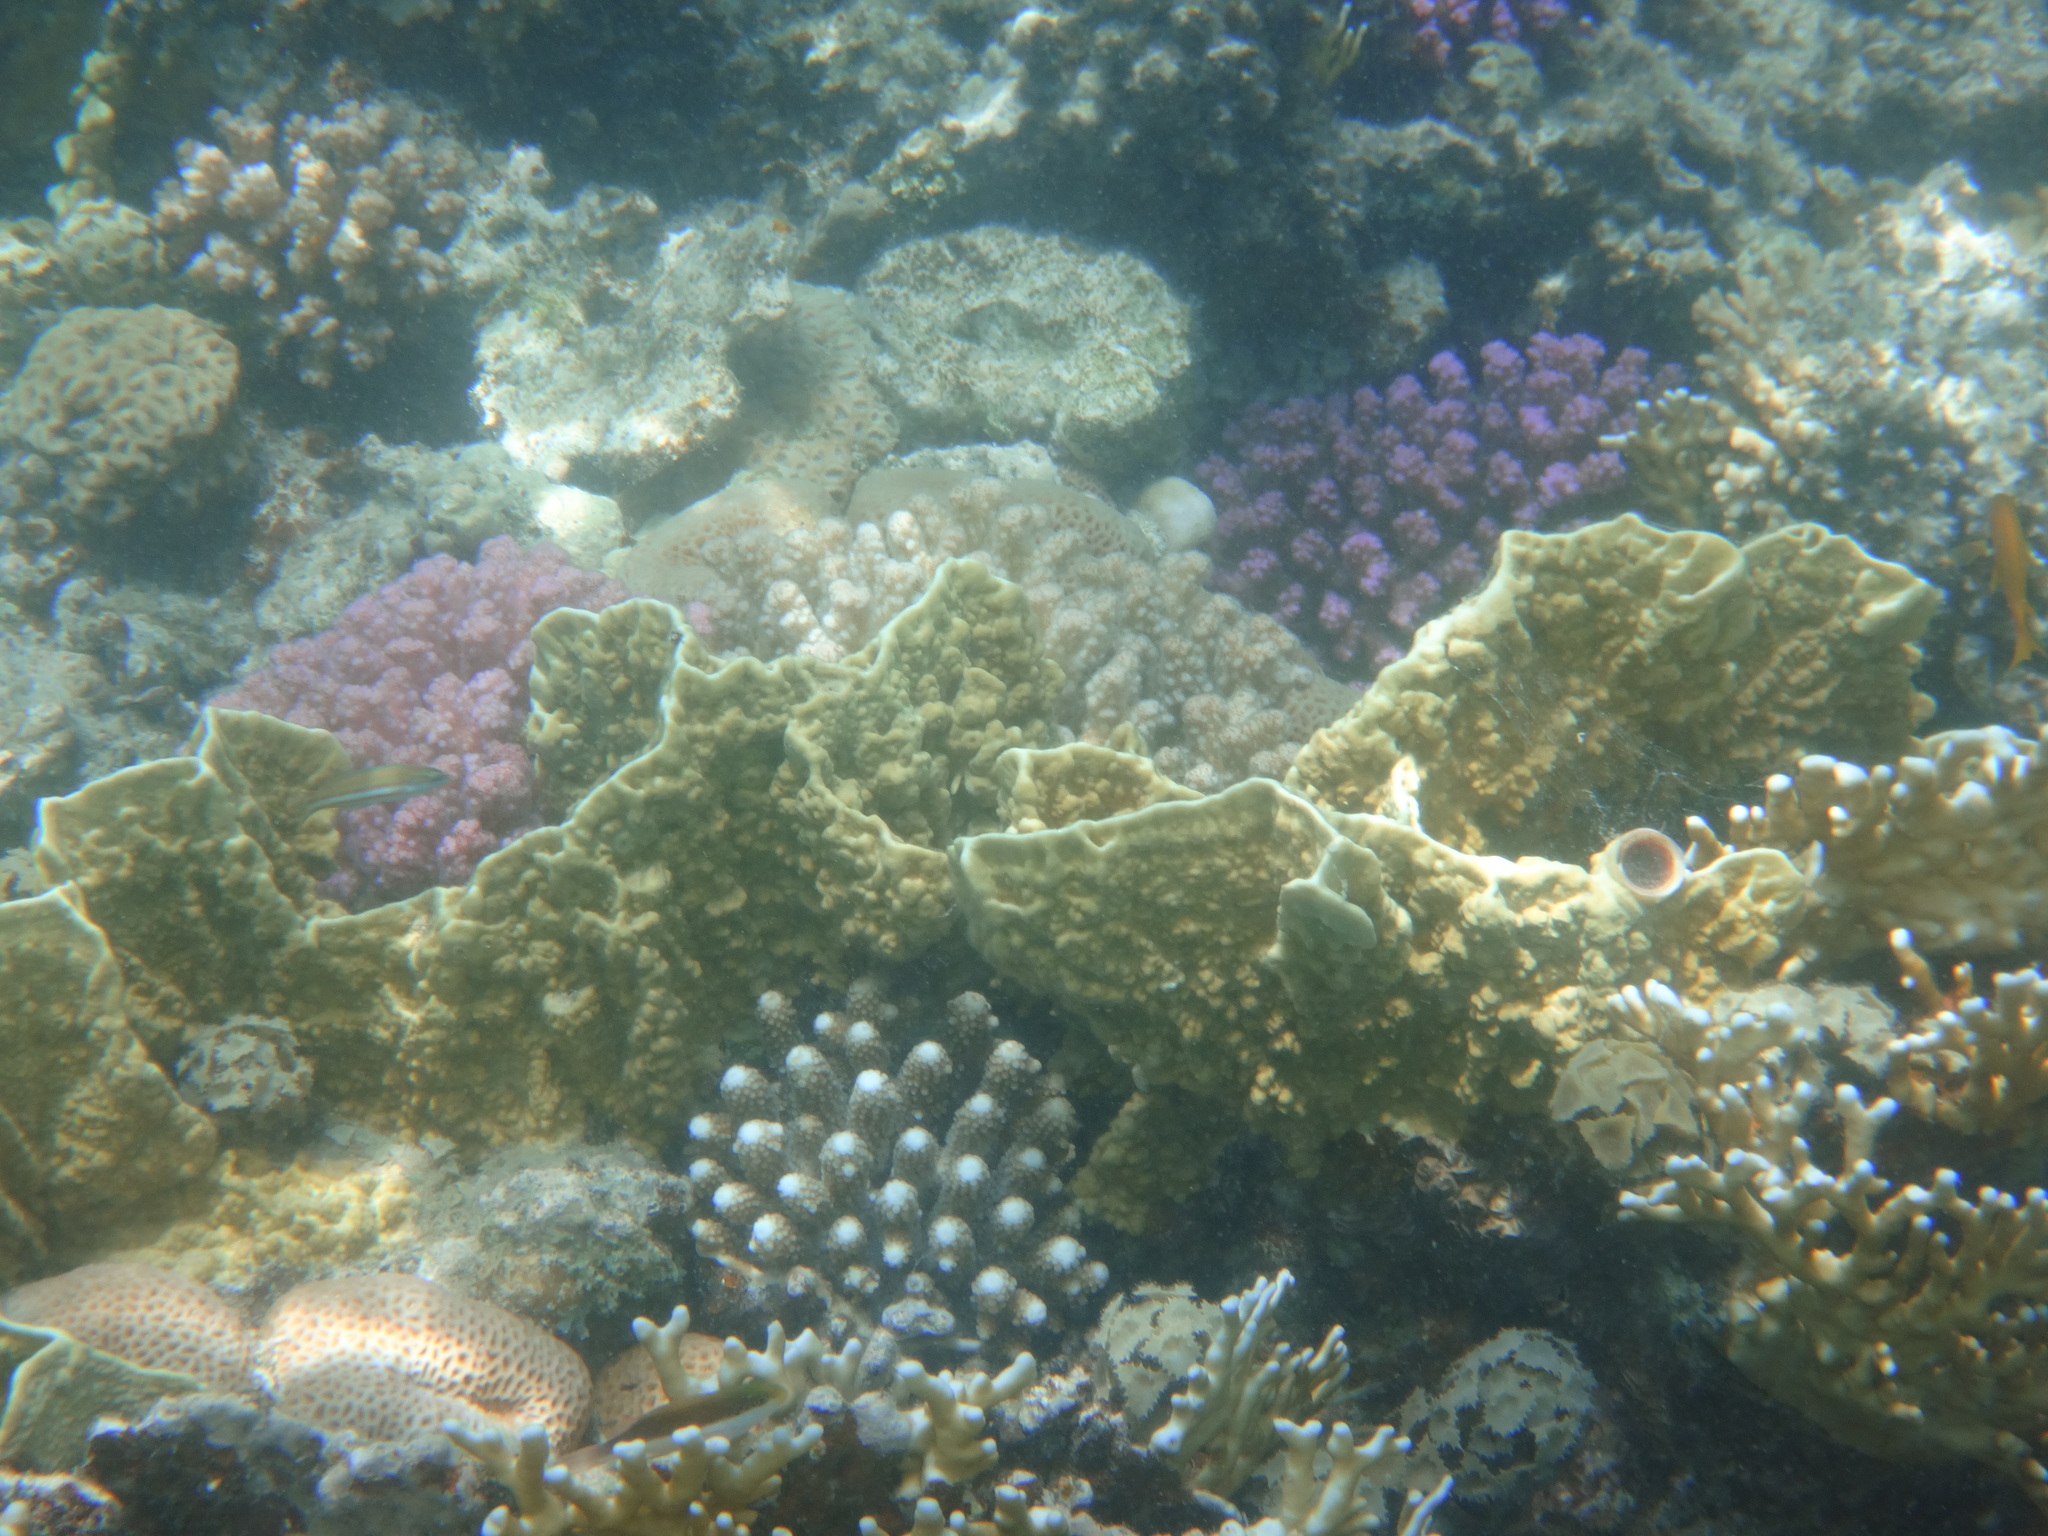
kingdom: Animalia
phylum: Cnidaria
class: Hydrozoa
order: Anthoathecata
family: Milleporidae
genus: Millepora
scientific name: Millepora platyphylla
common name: Sheet fire coral
